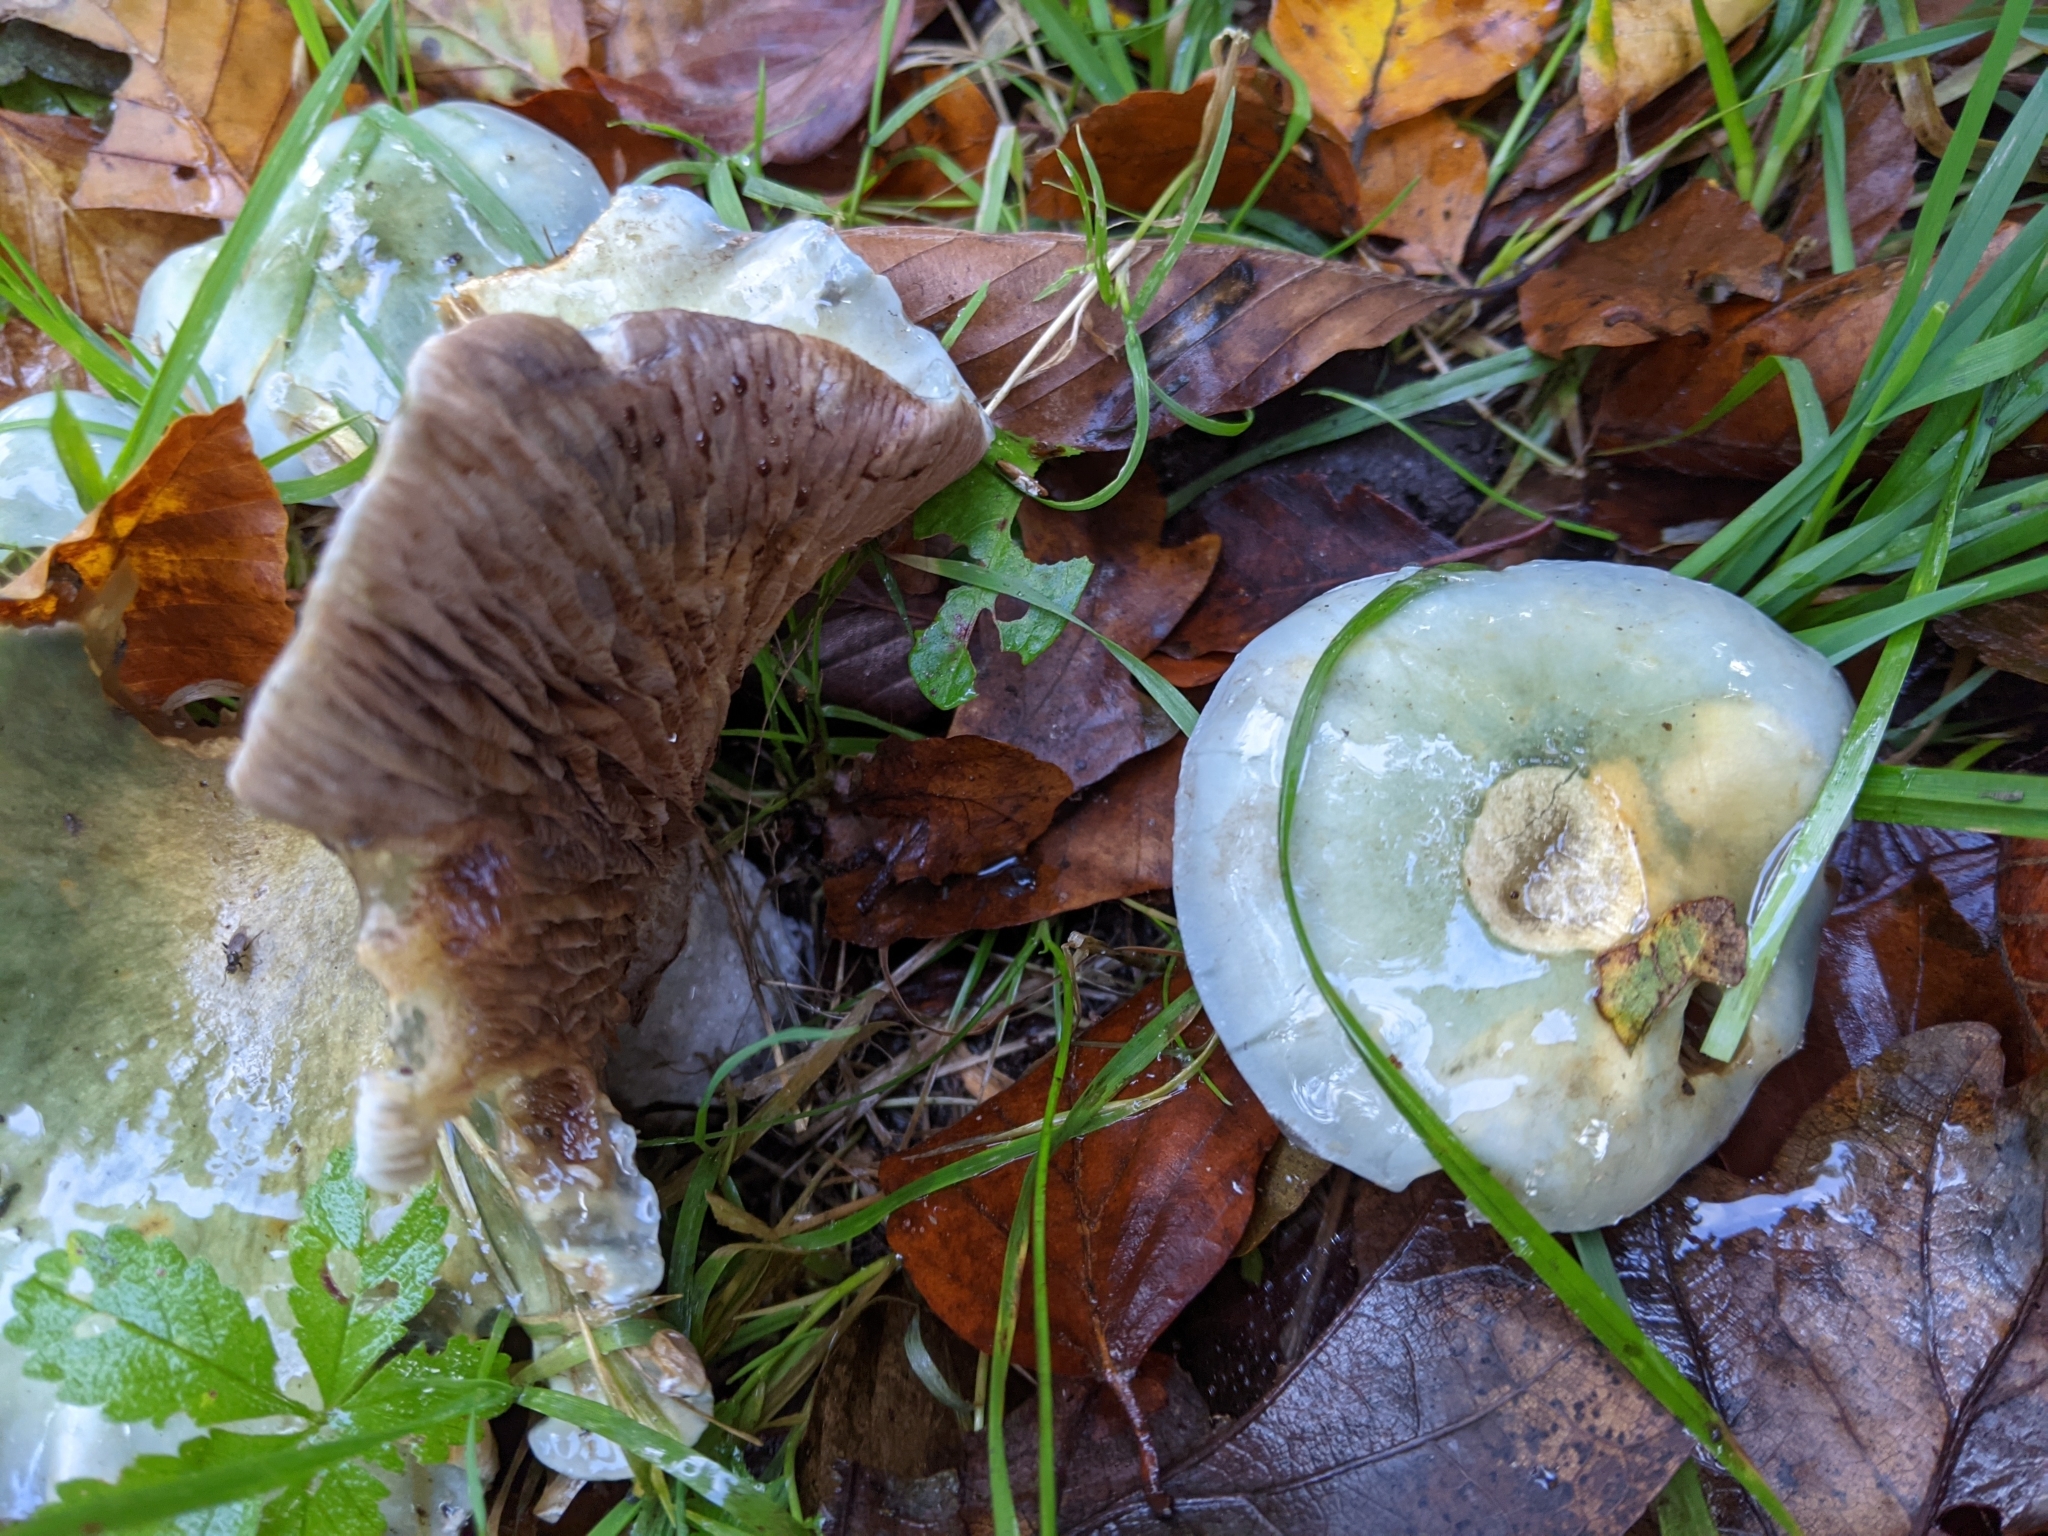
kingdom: Fungi
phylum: Basidiomycota
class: Agaricomycetes
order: Agaricales
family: Strophariaceae
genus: Stropharia
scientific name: Stropharia caerulea
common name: Blue roundhead
